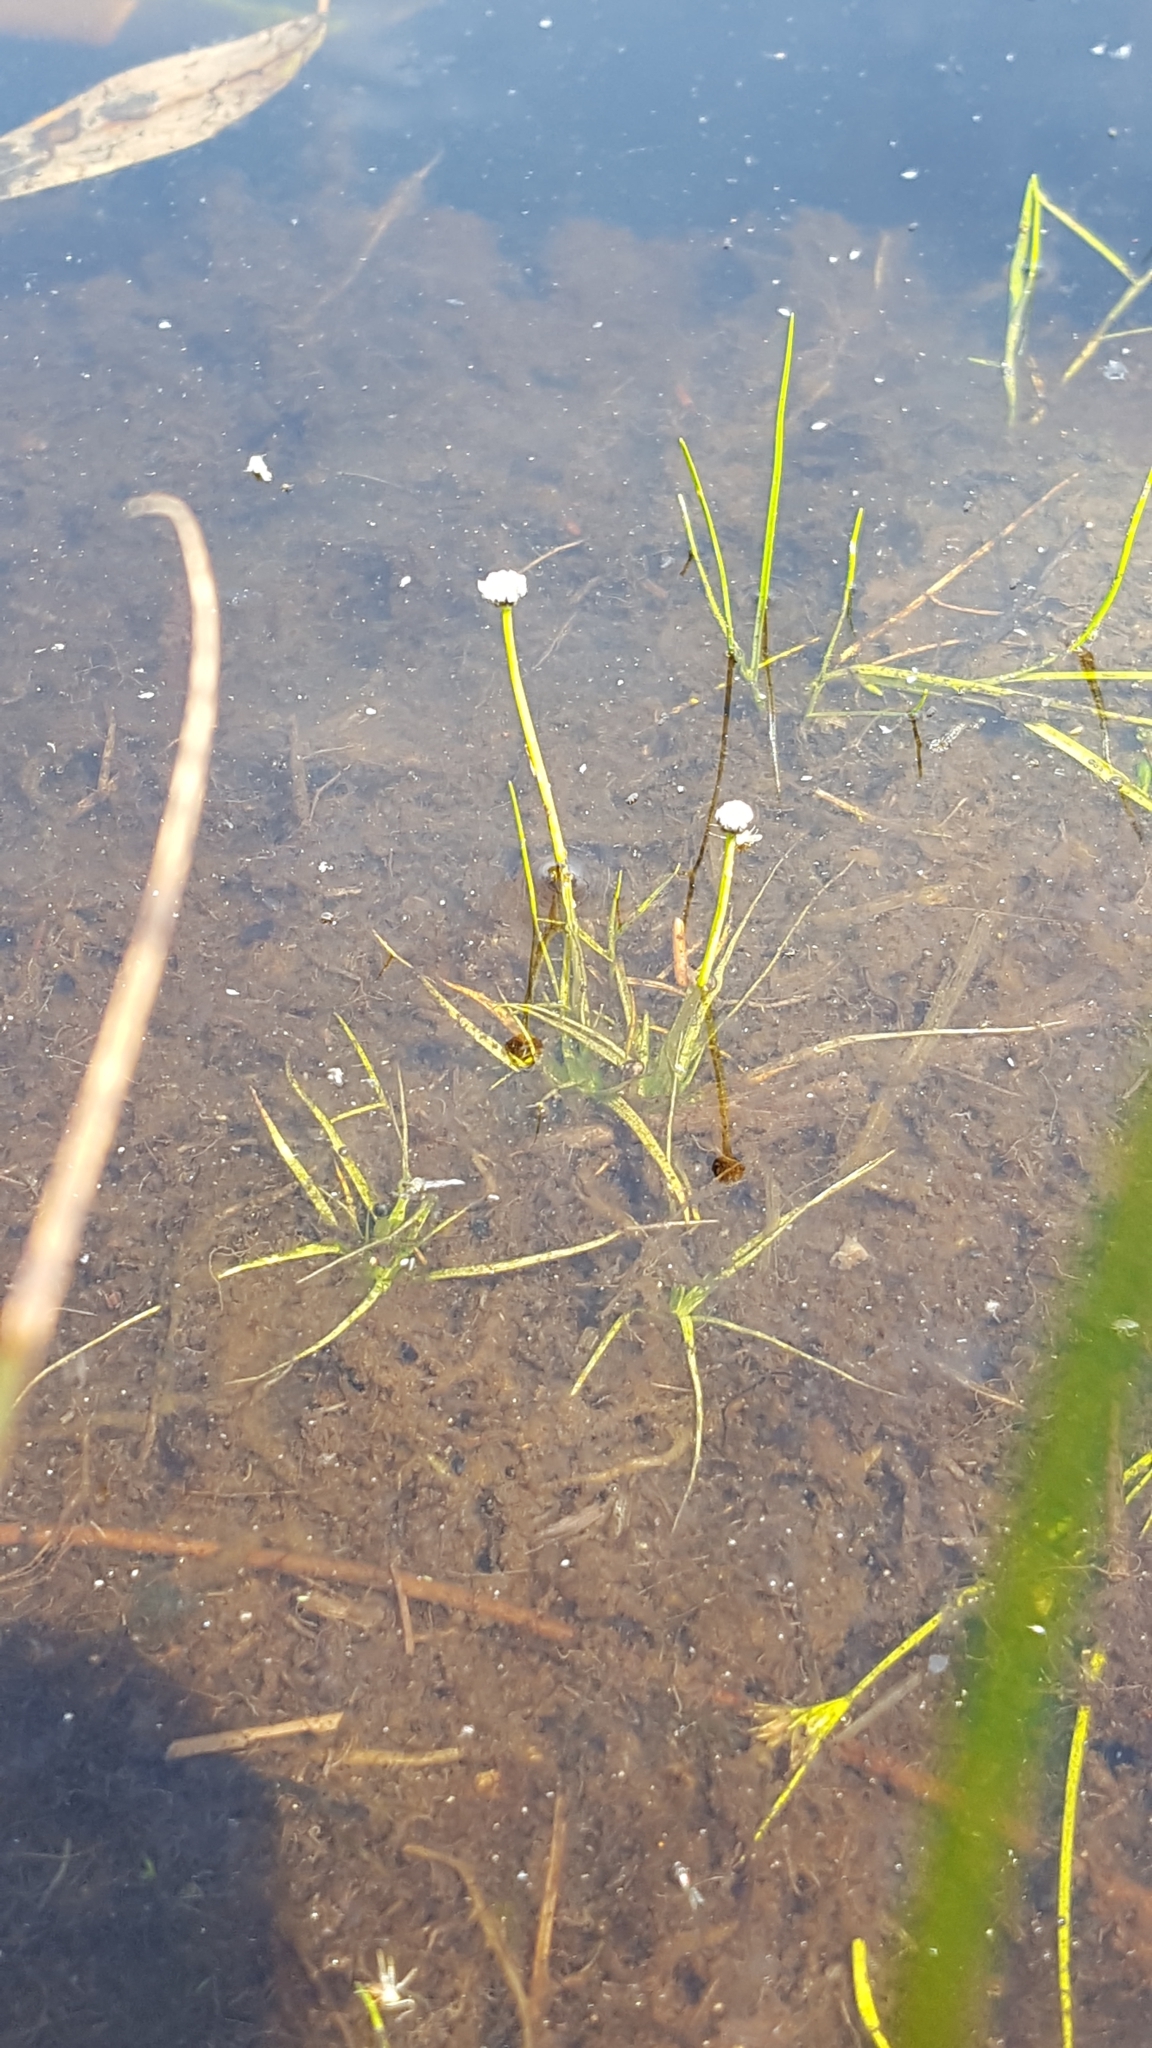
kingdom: Plantae
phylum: Tracheophyta
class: Liliopsida
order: Poales
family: Eriocaulaceae
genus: Eriocaulon
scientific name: Eriocaulon aquaticum
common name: Pipewort
